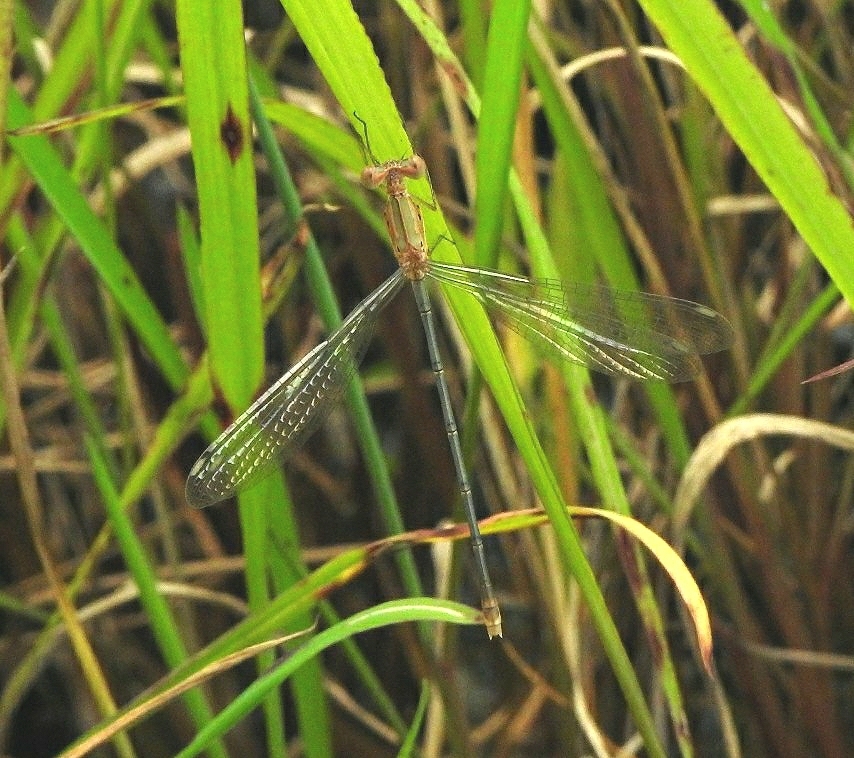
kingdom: Animalia
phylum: Arthropoda
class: Insecta
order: Odonata
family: Lestidae
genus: Lestes
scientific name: Lestes elatus
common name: Emerald spreadwing
